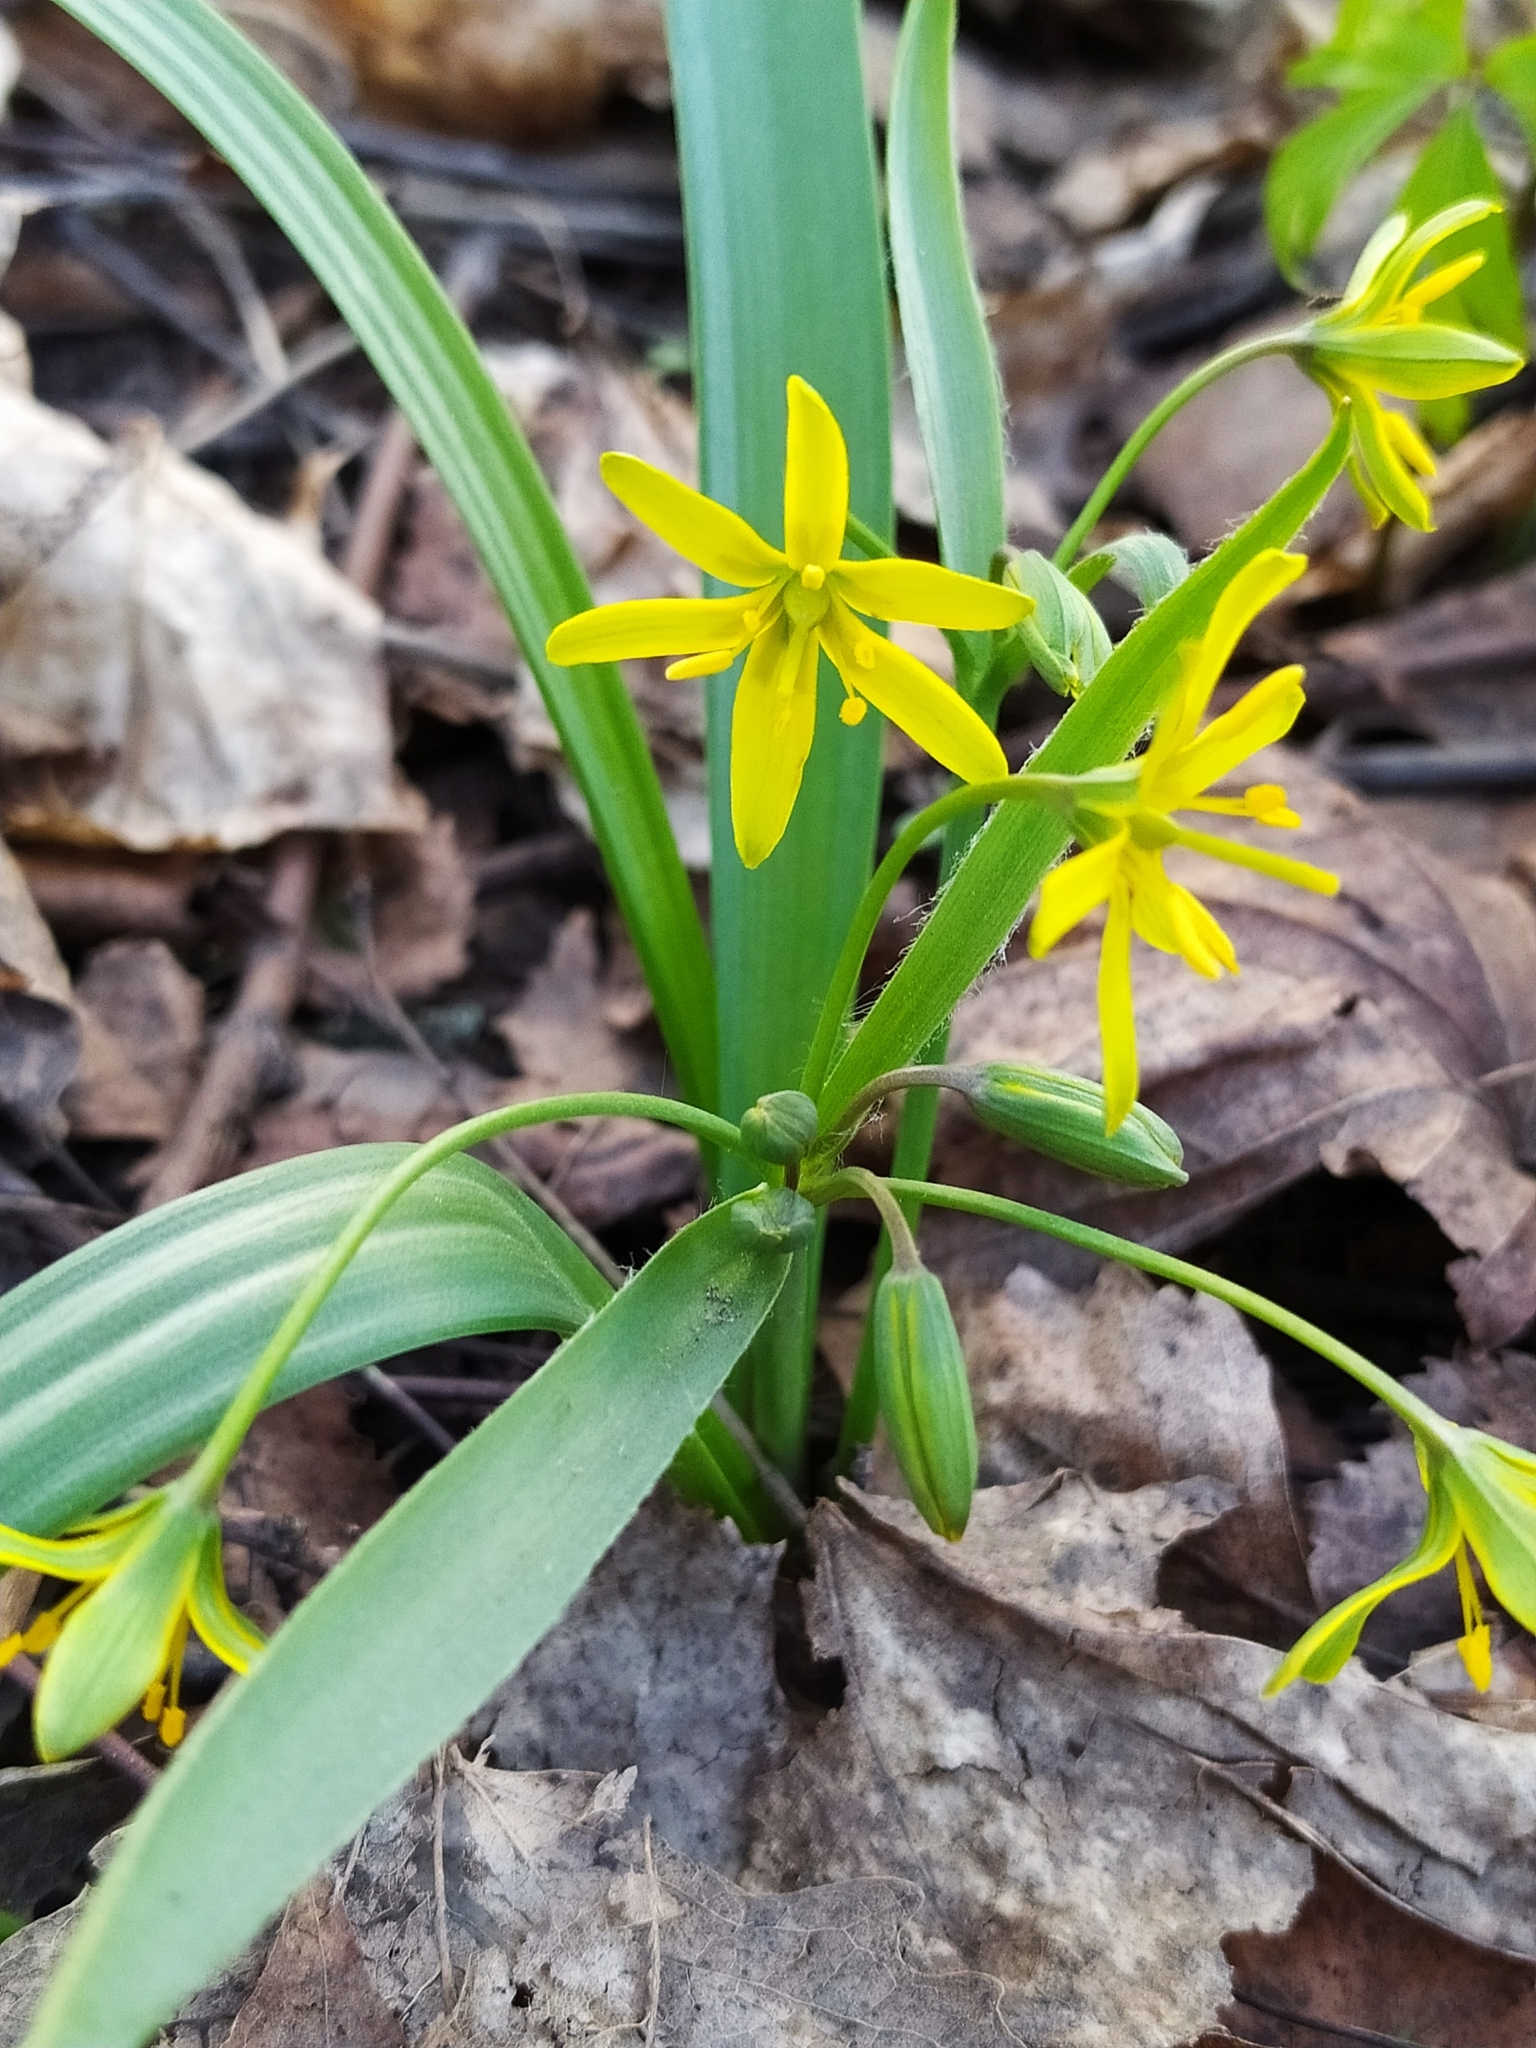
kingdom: Plantae
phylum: Tracheophyta
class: Liliopsida
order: Liliales
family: Liliaceae
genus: Gagea
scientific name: Gagea lutea
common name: Yellow star-of-bethlehem
